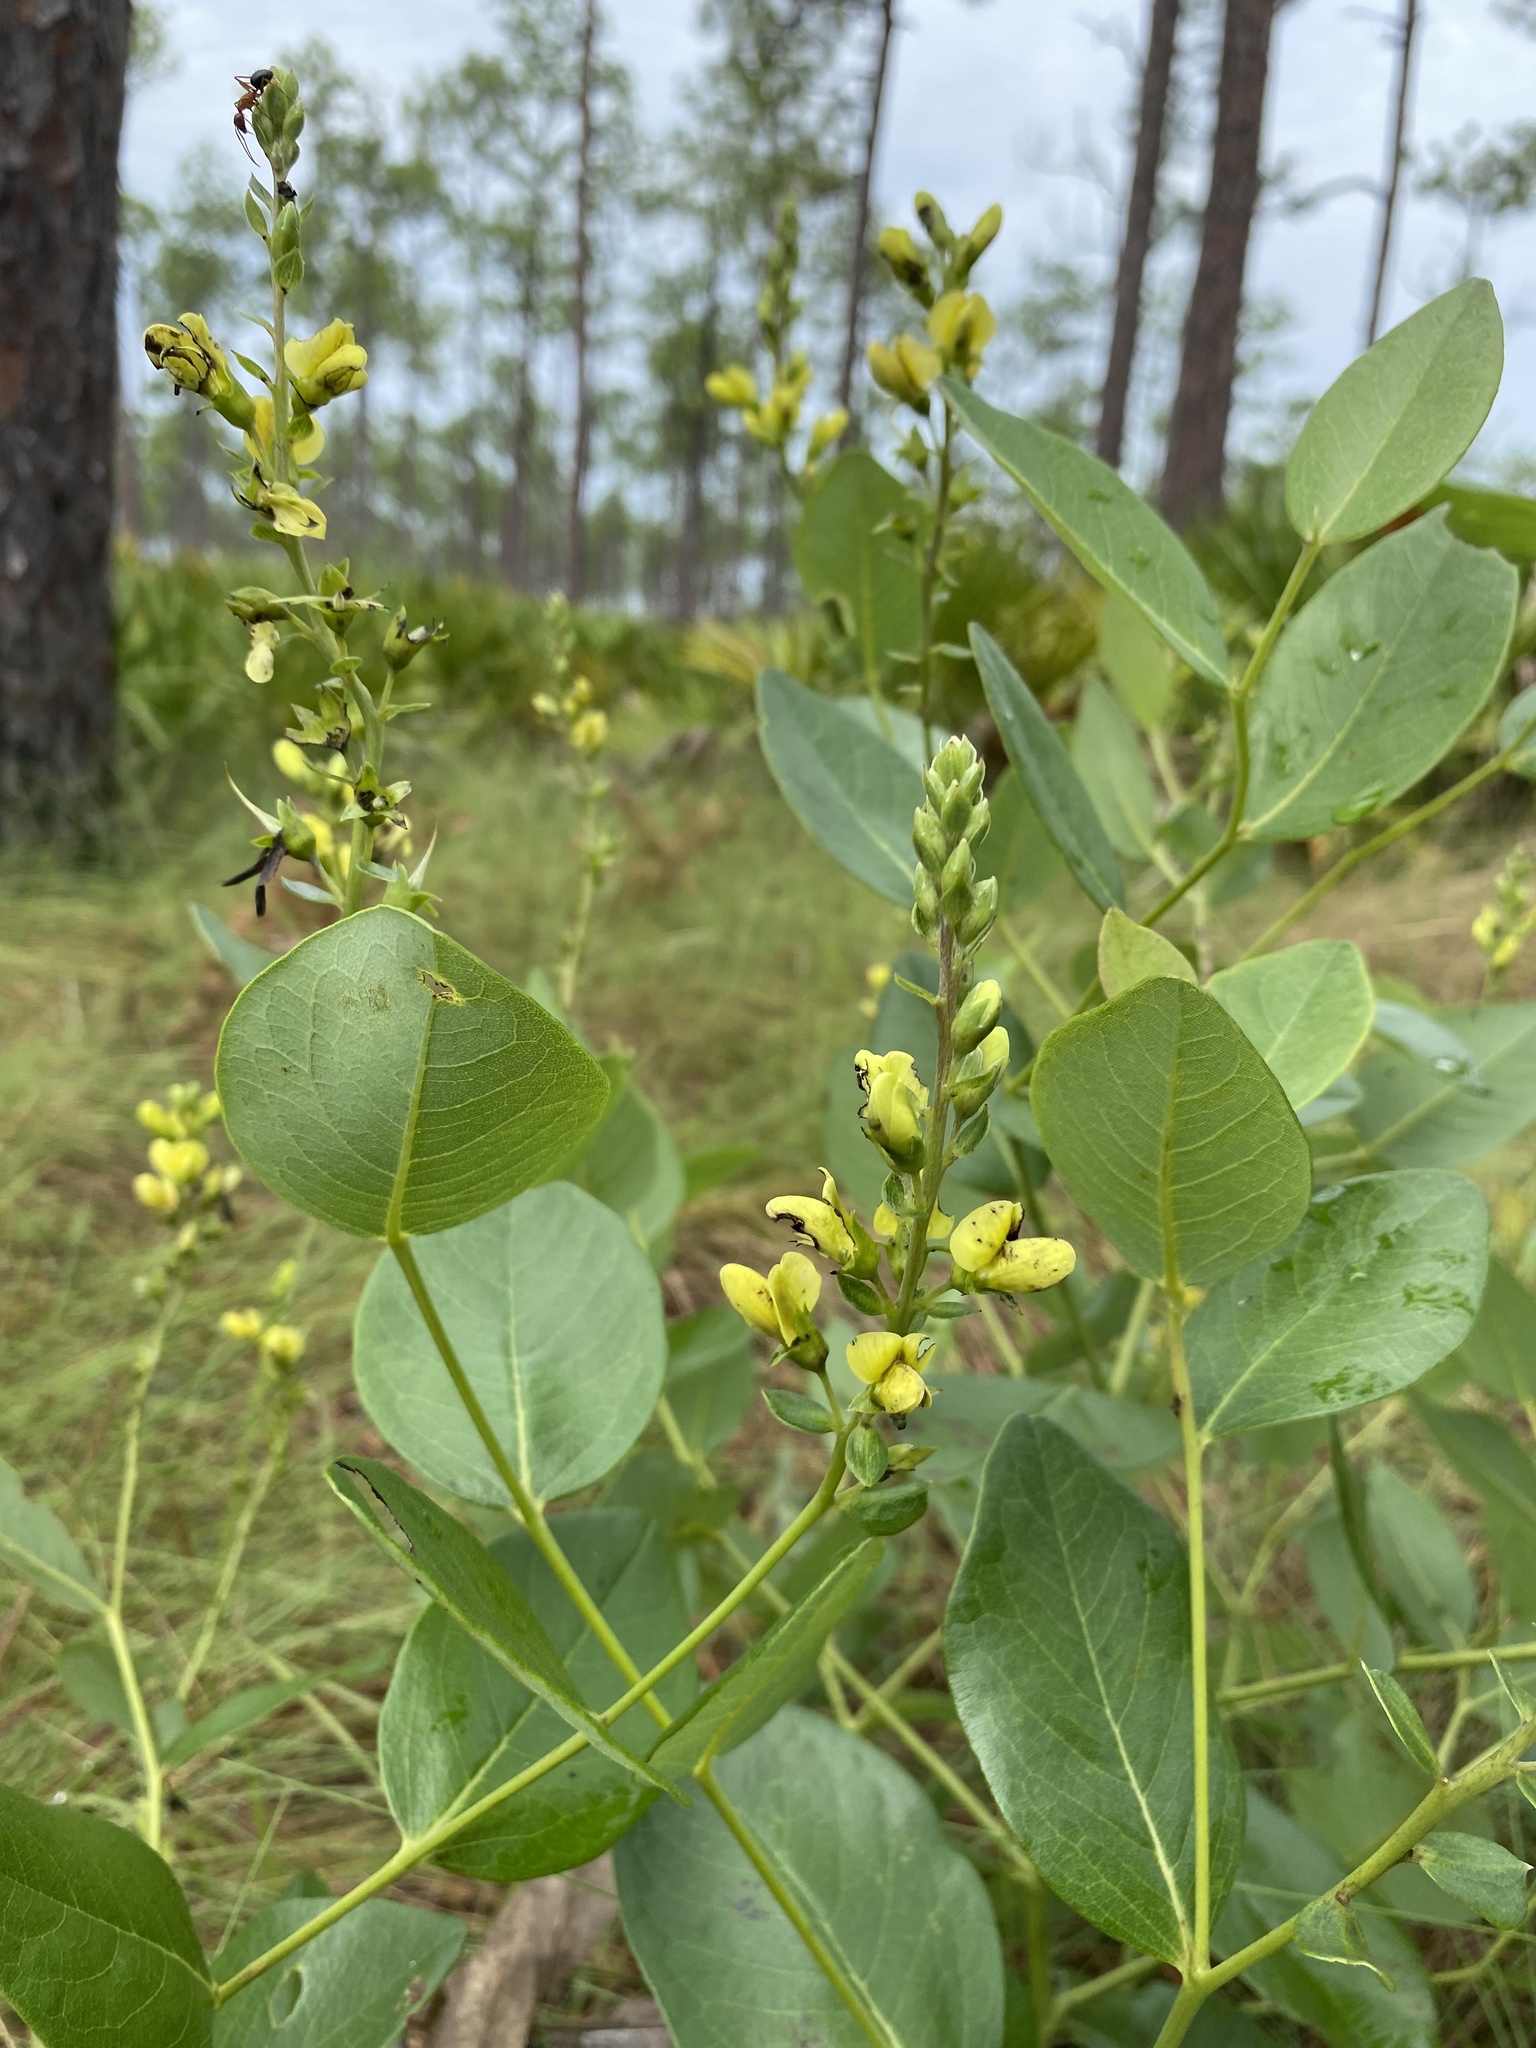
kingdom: Plantae
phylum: Tracheophyta
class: Magnoliopsida
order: Fabales
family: Fabaceae
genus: Baptisia
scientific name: Baptisia simplicifolia
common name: Scareweed
